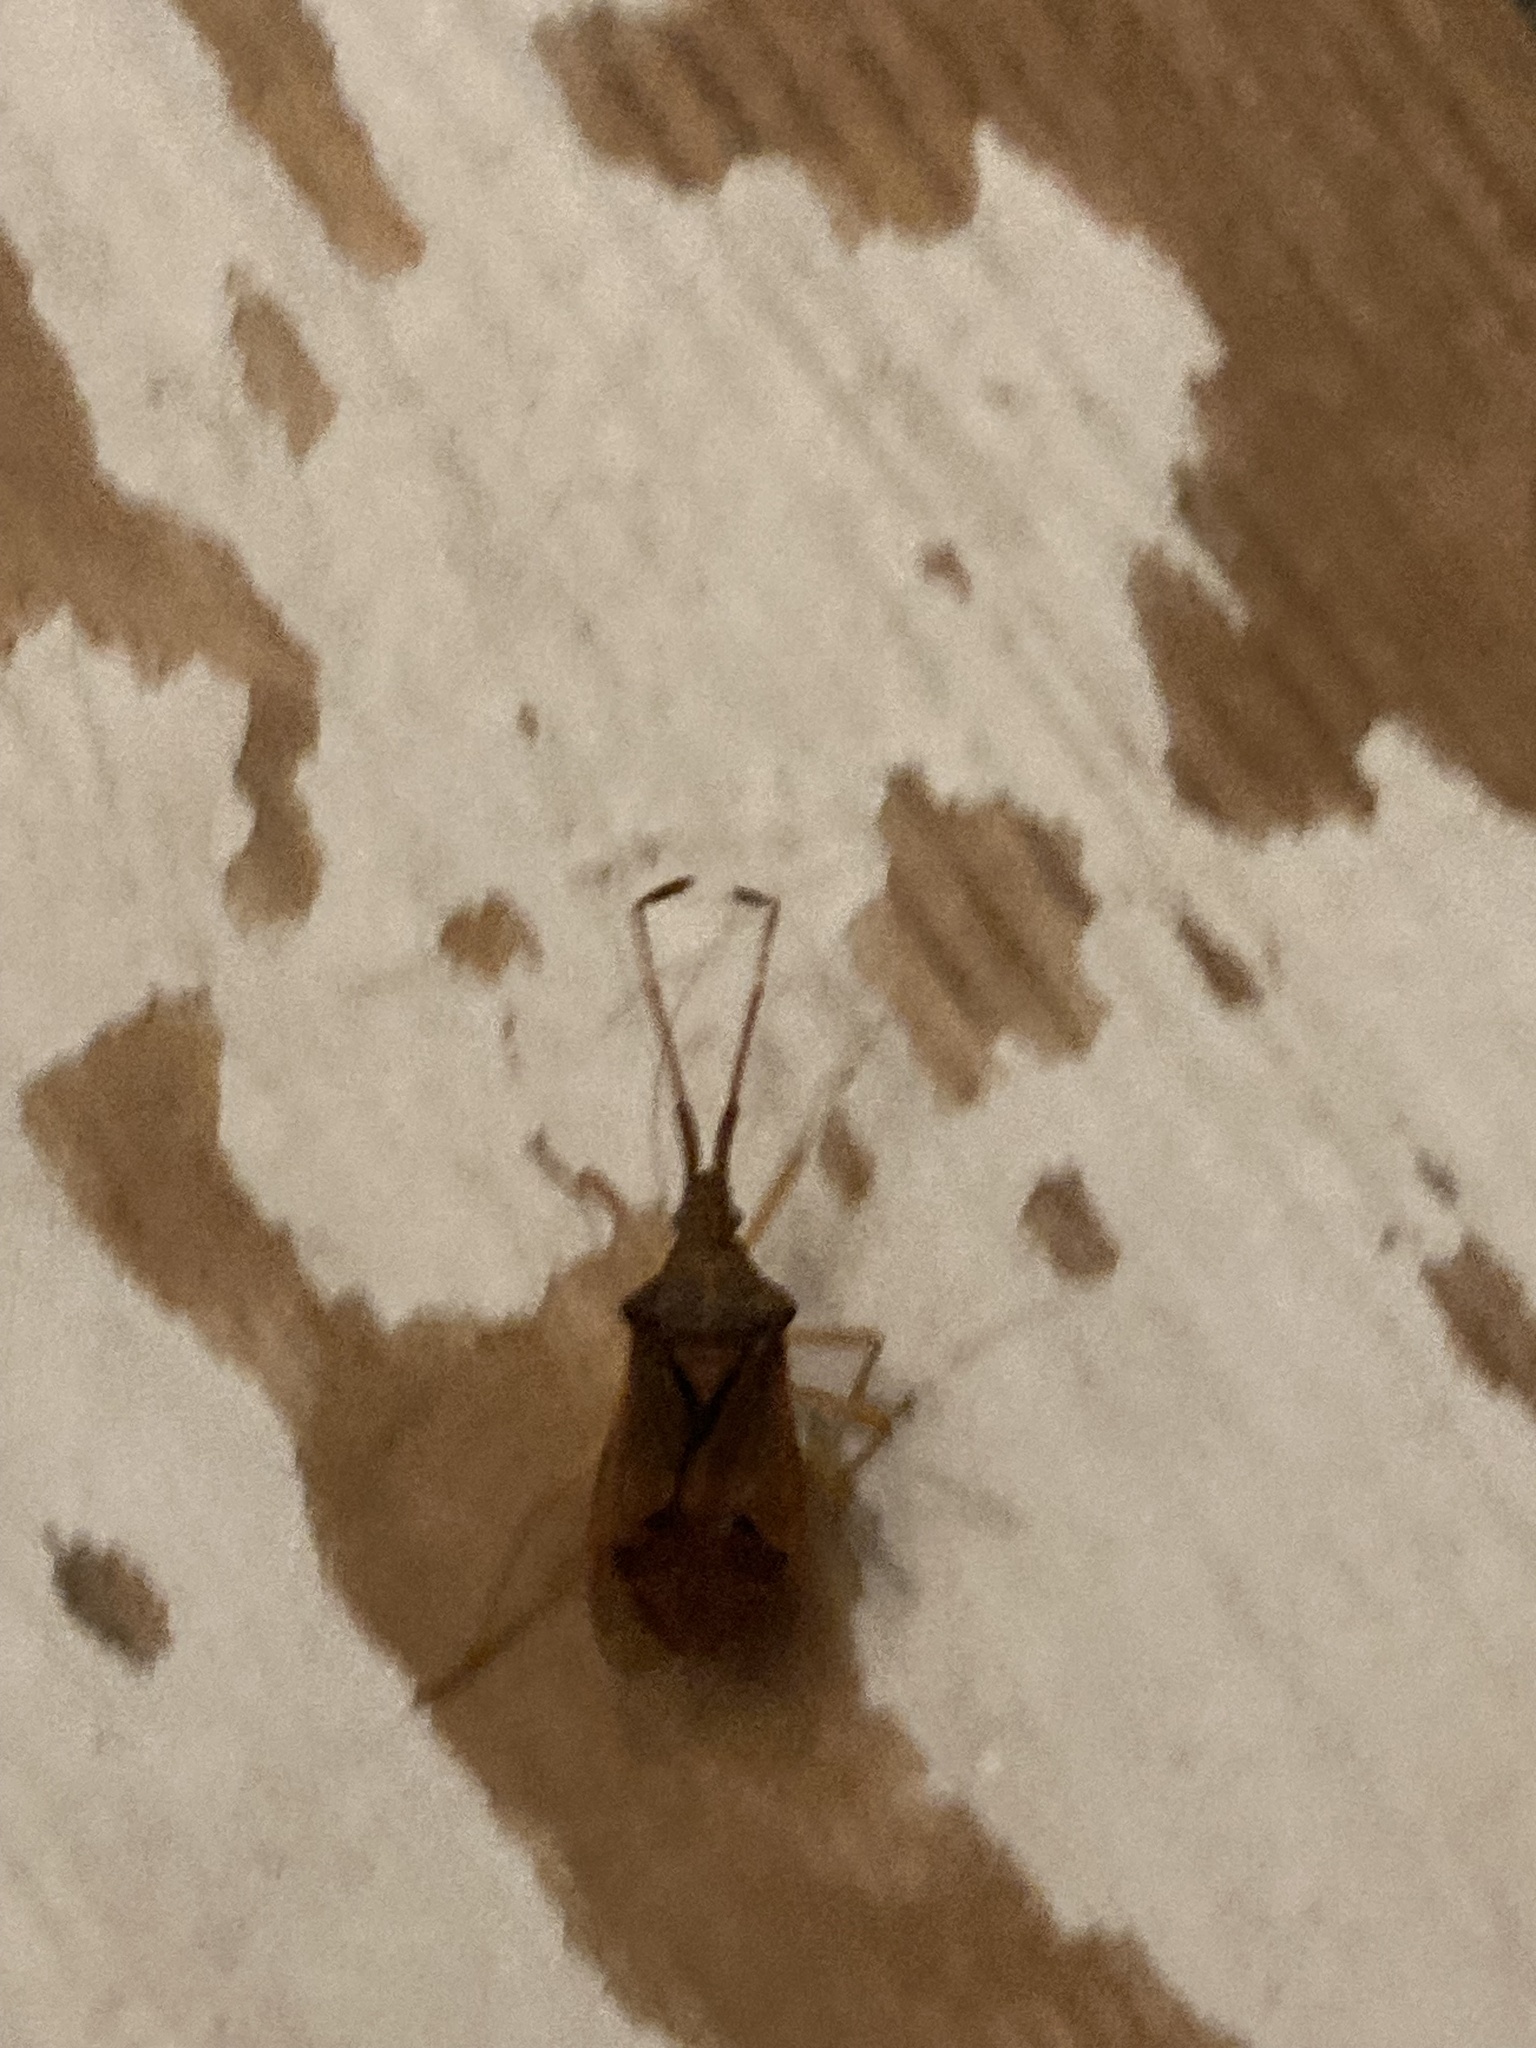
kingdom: Animalia
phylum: Arthropoda
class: Insecta
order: Hemiptera
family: Coreidae
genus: Gonocerus
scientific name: Gonocerus acuteangulatus
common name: Box bug
